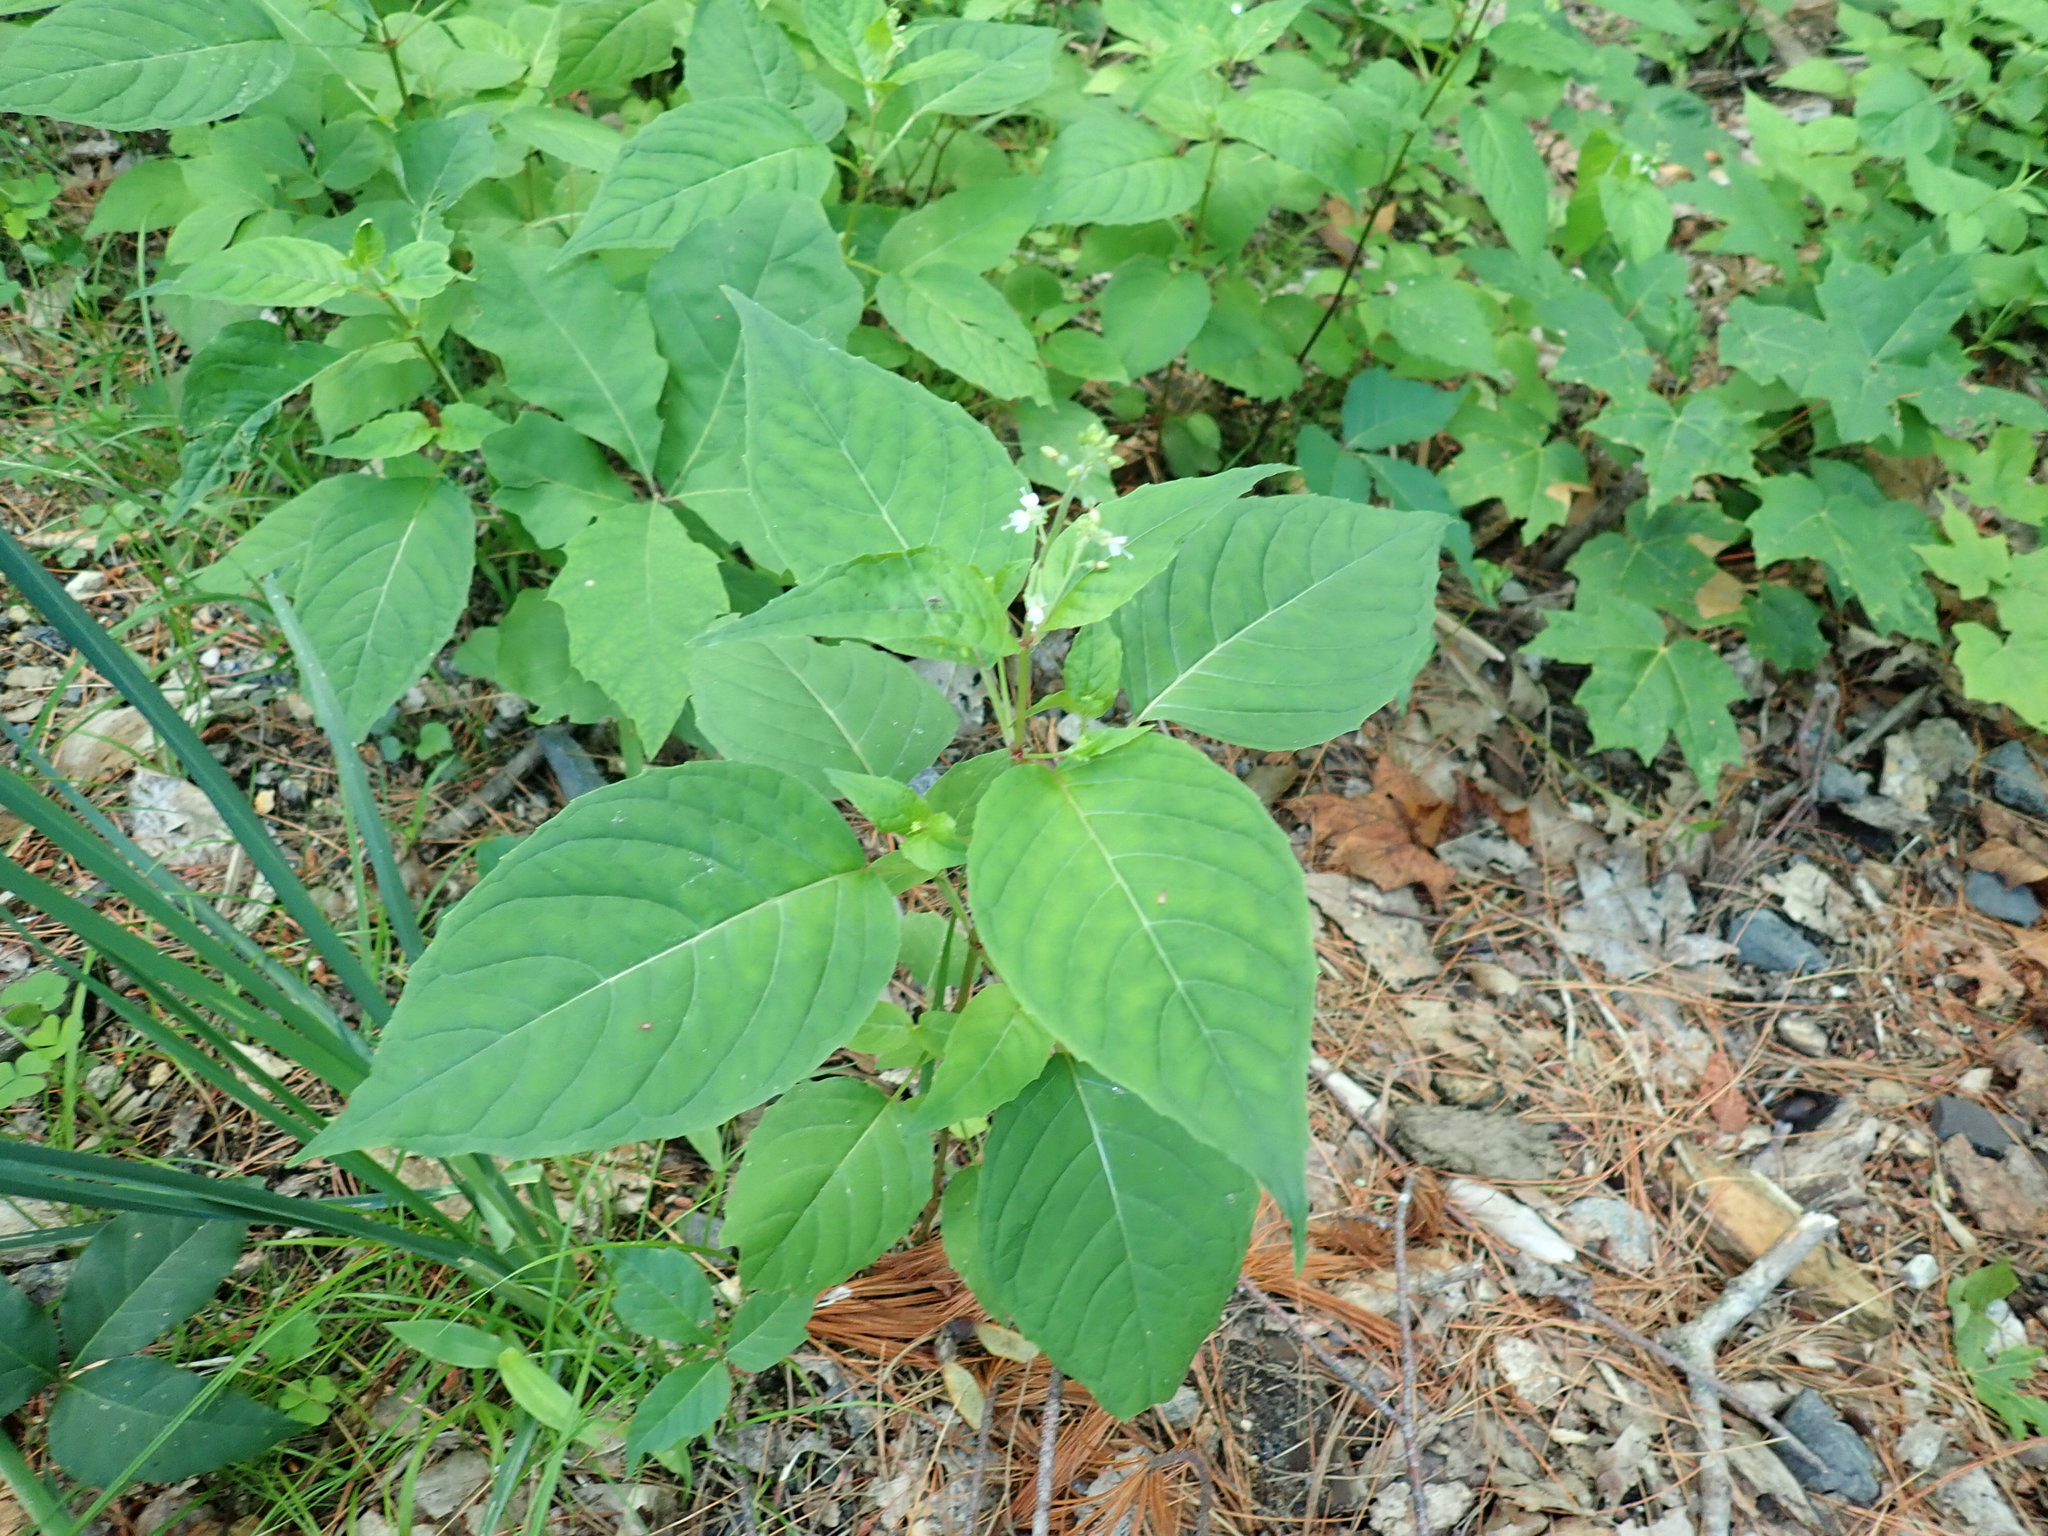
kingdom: Plantae
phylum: Tracheophyta
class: Magnoliopsida
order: Myrtales
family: Onagraceae
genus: Circaea
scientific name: Circaea canadensis
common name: Broad-leaved enchanter's nightshade
